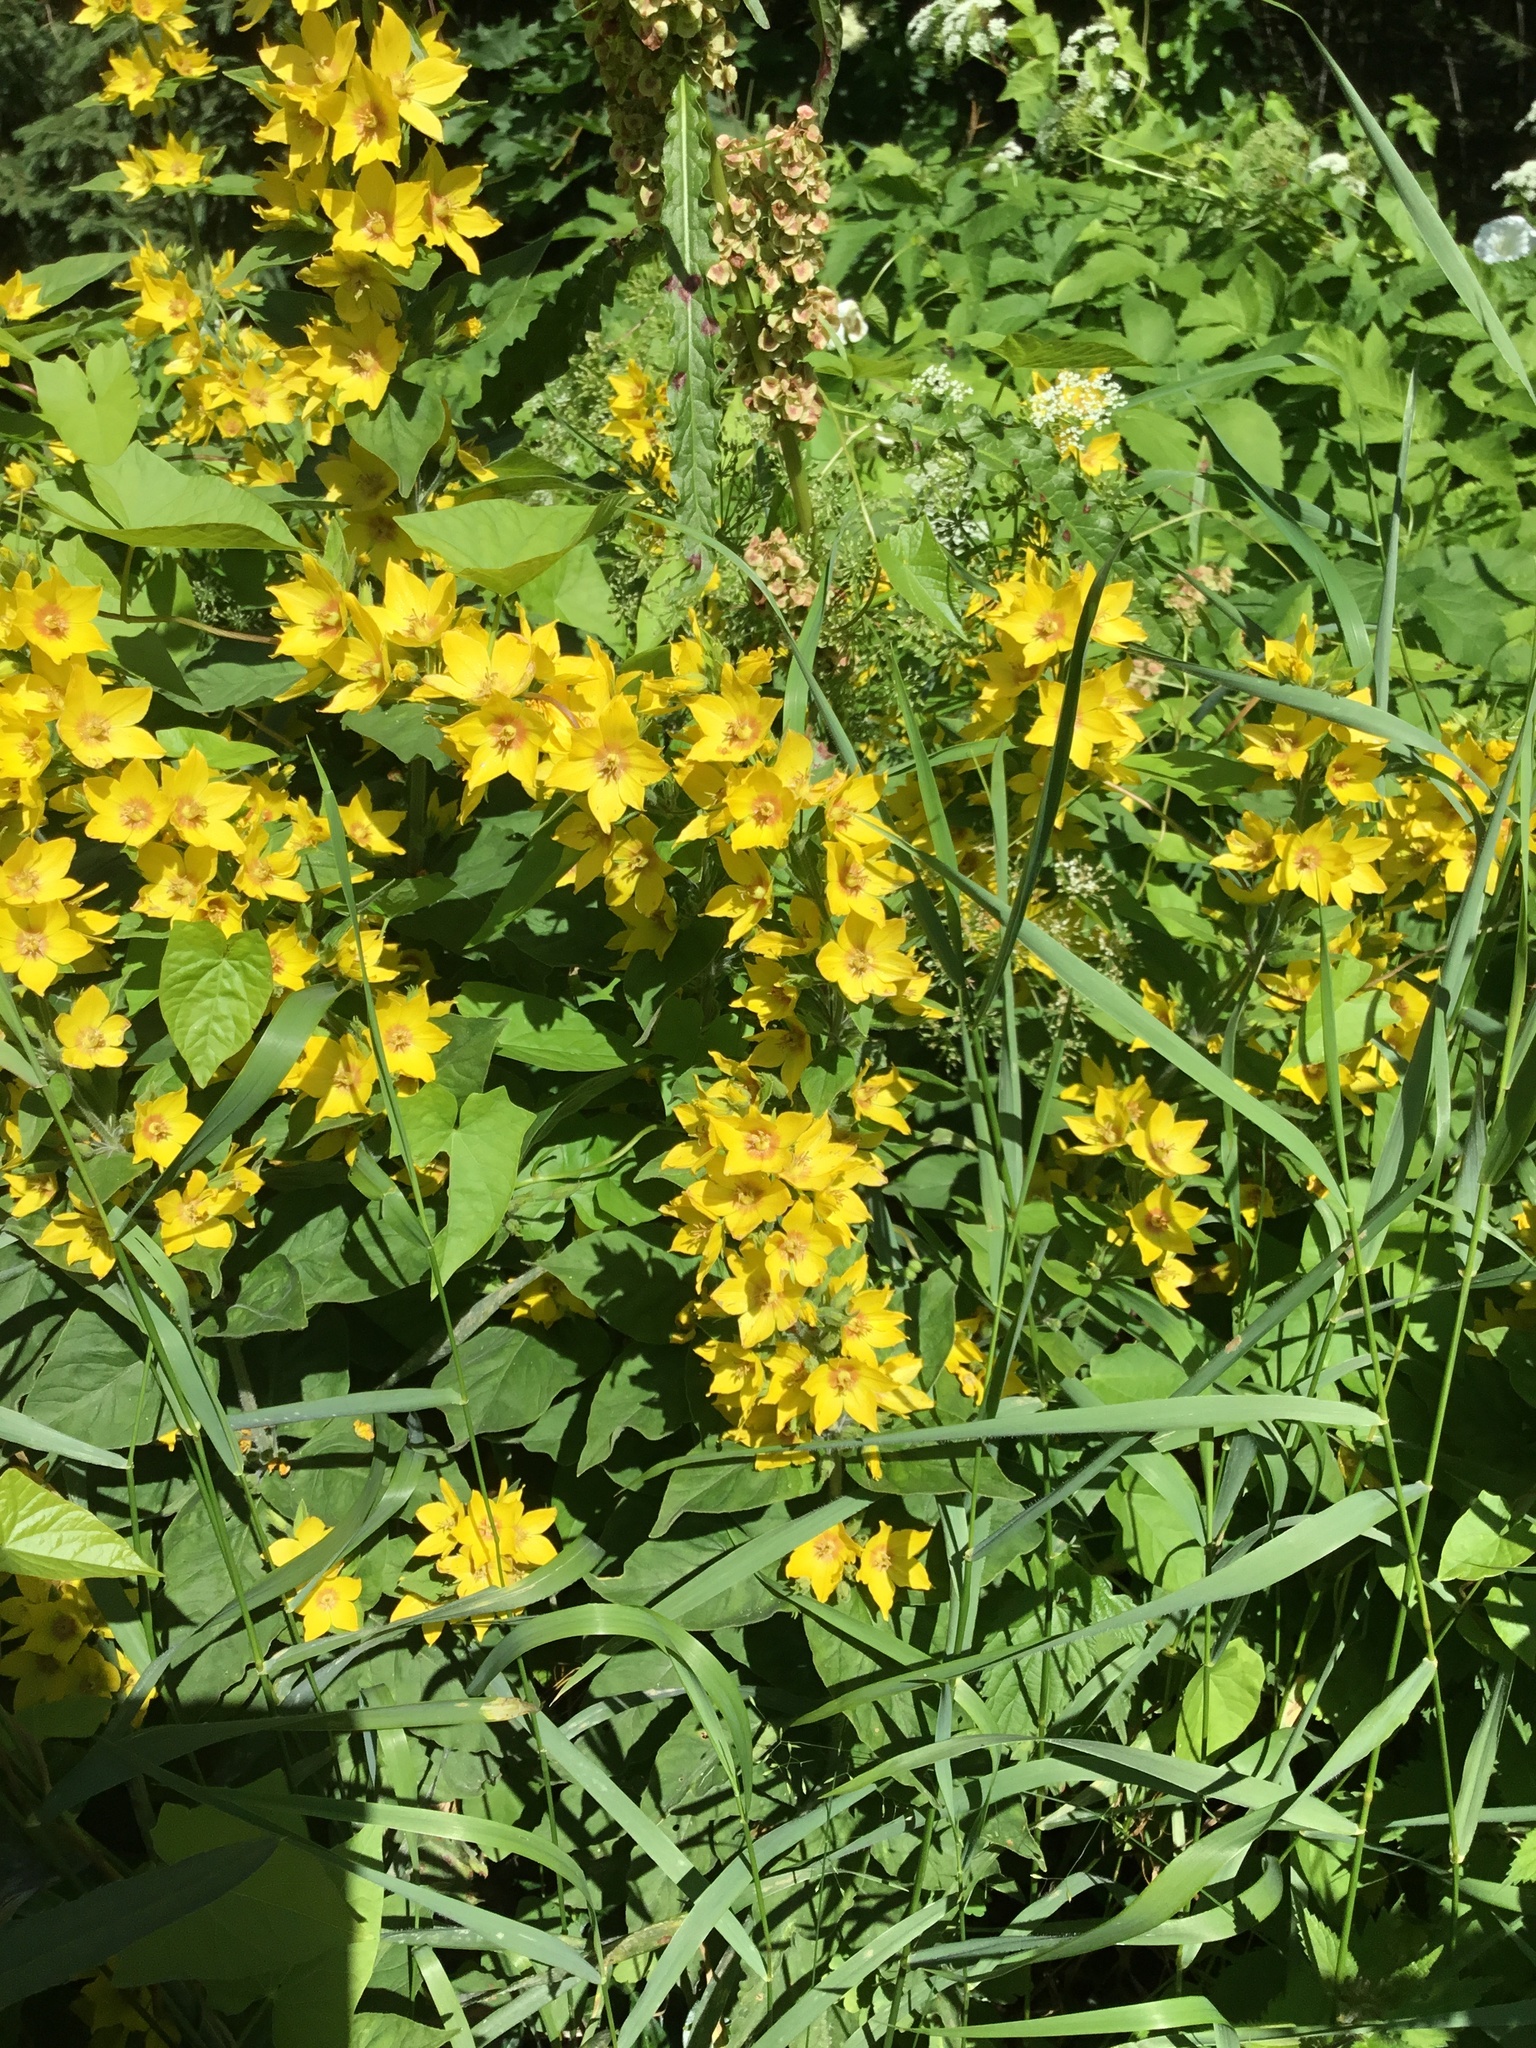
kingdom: Plantae
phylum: Tracheophyta
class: Magnoliopsida
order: Ericales
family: Primulaceae
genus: Lysimachia
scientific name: Lysimachia punctata
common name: Dotted loosestrife
